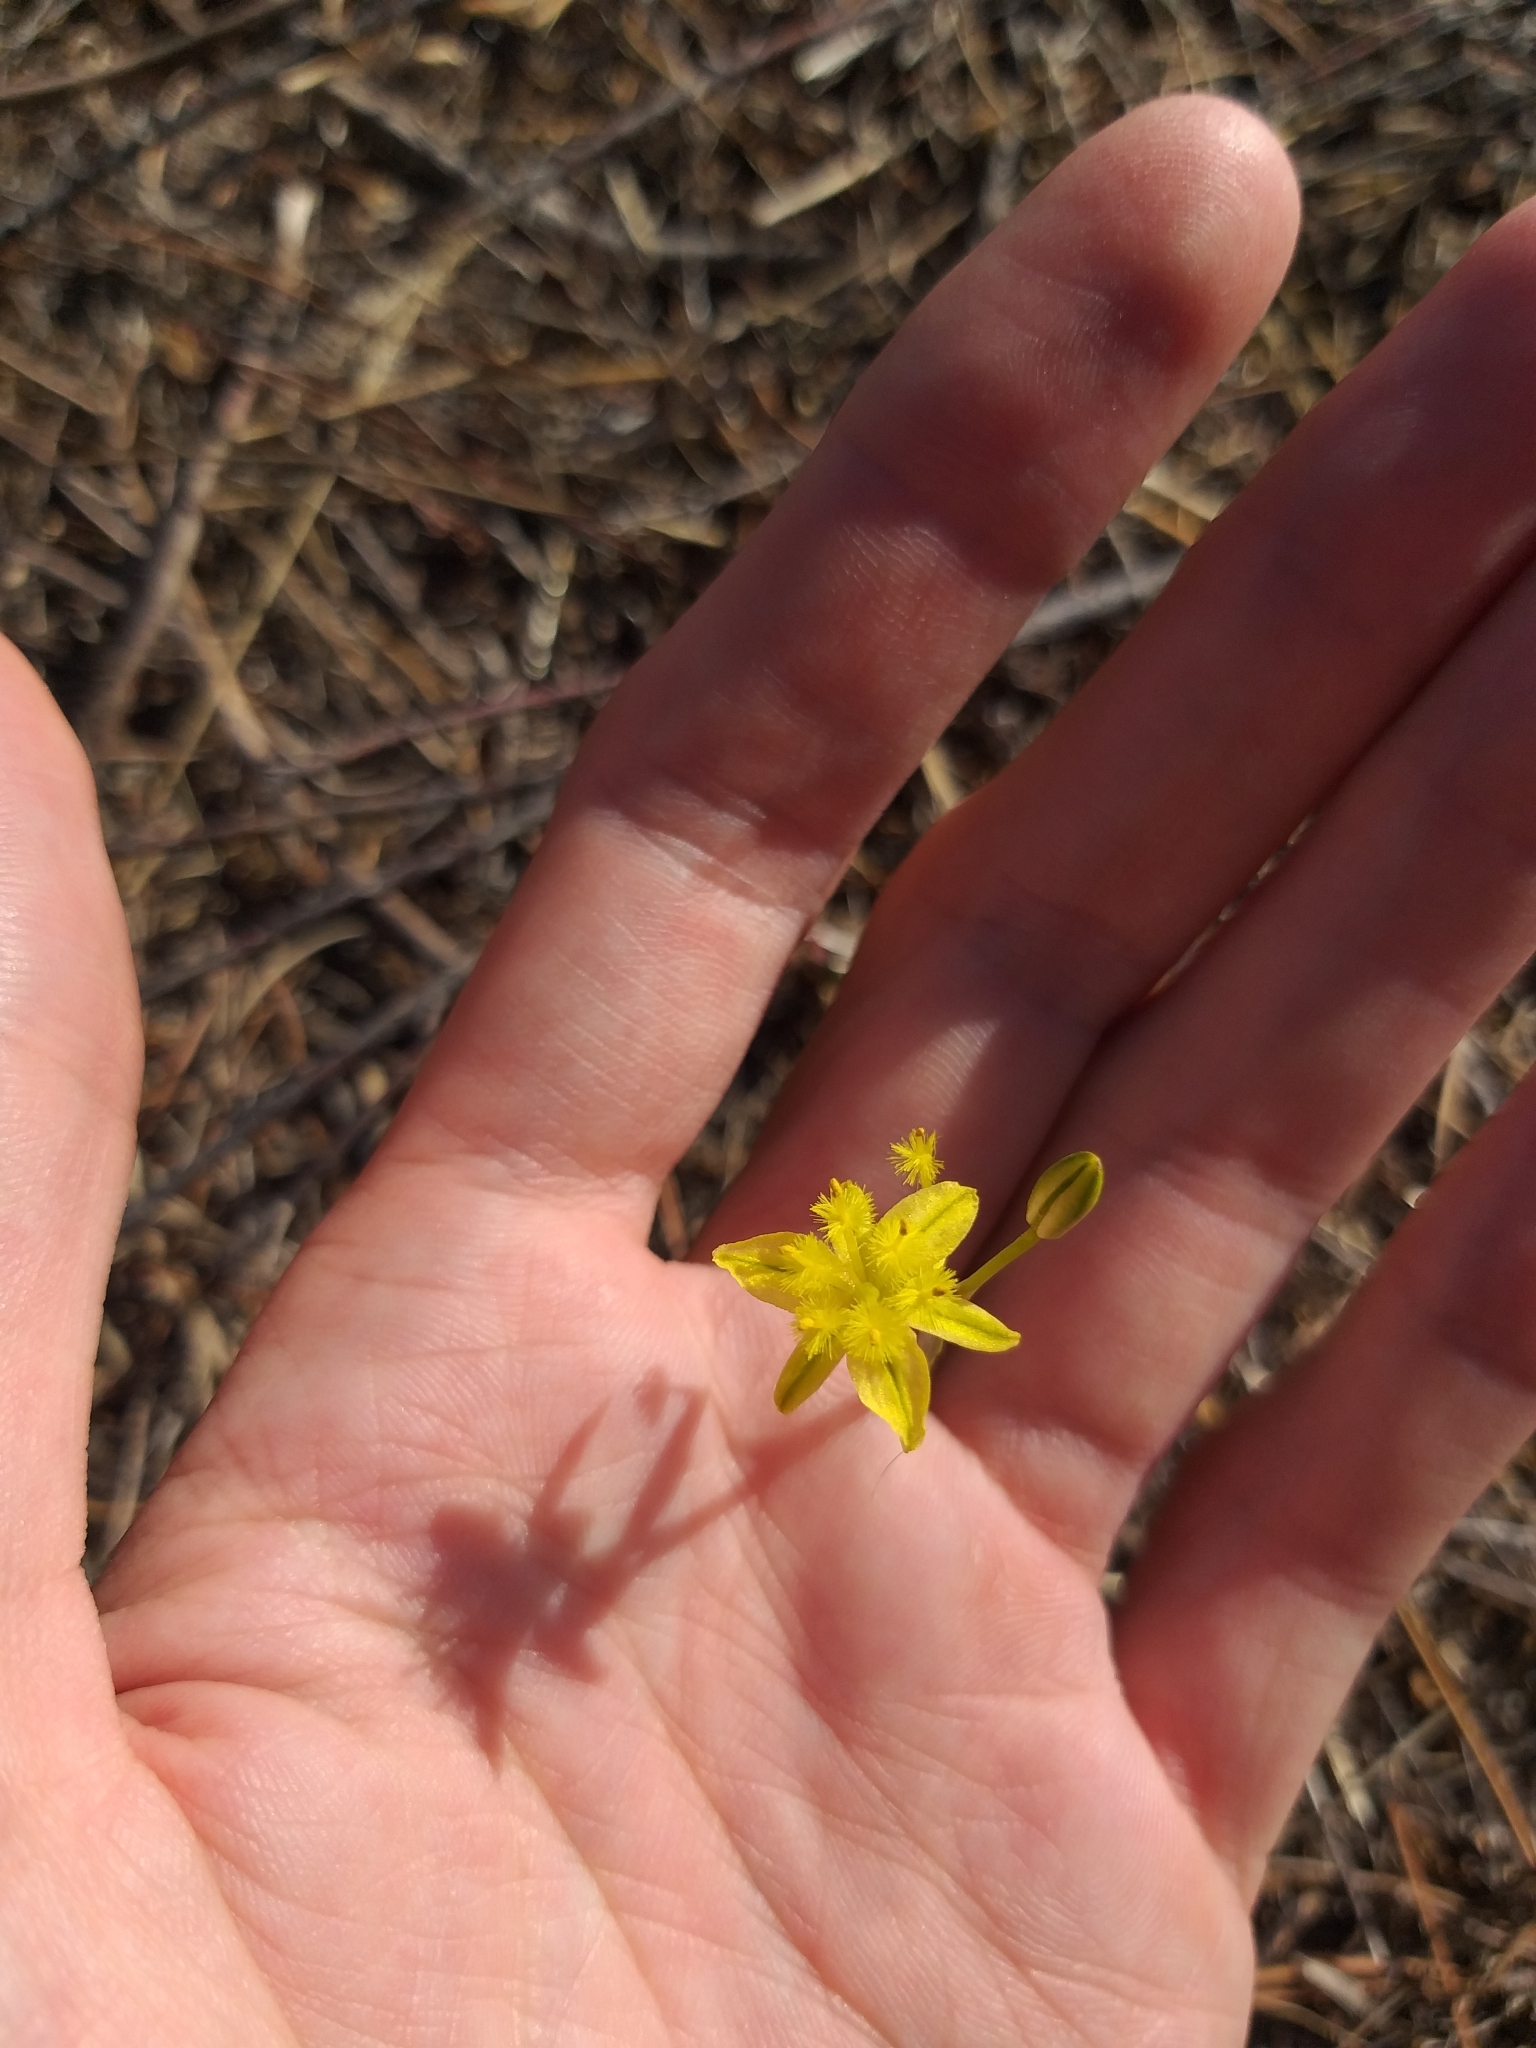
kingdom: Plantae
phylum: Tracheophyta
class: Liliopsida
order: Asparagales
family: Asphodelaceae
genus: Bulbine
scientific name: Bulbine favosa
